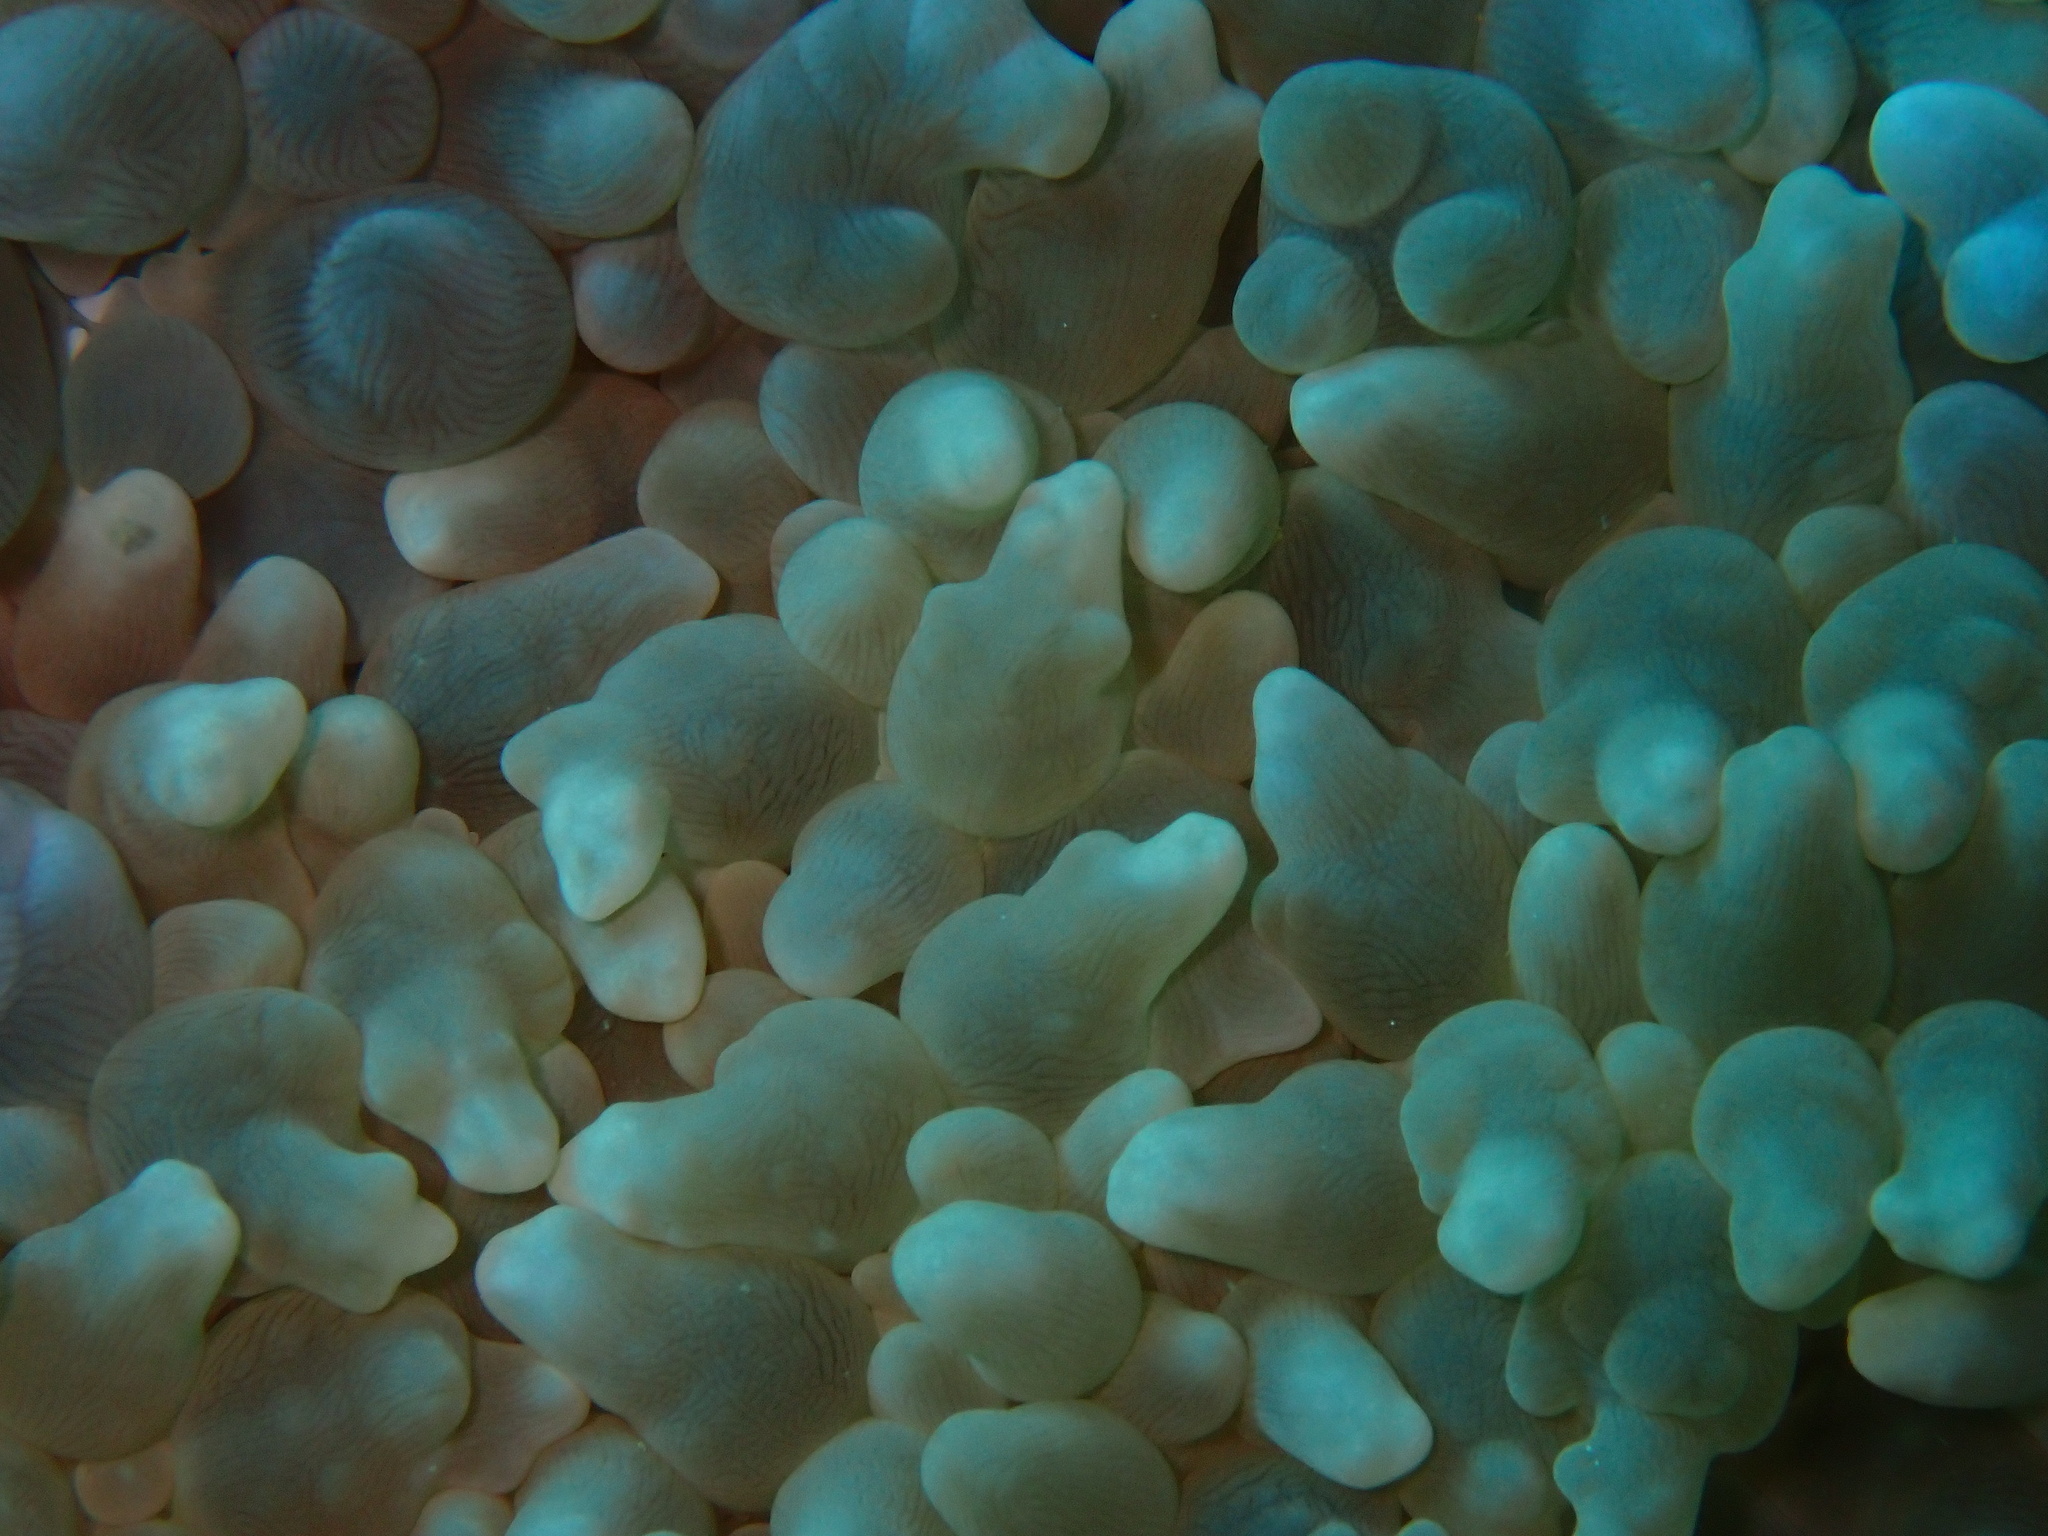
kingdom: Animalia
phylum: Cnidaria
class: Anthozoa
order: Scleractinia
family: Plerogyridae
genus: Physogyra
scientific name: Physogyra lichtensteini
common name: Tipped bubblegum coral
